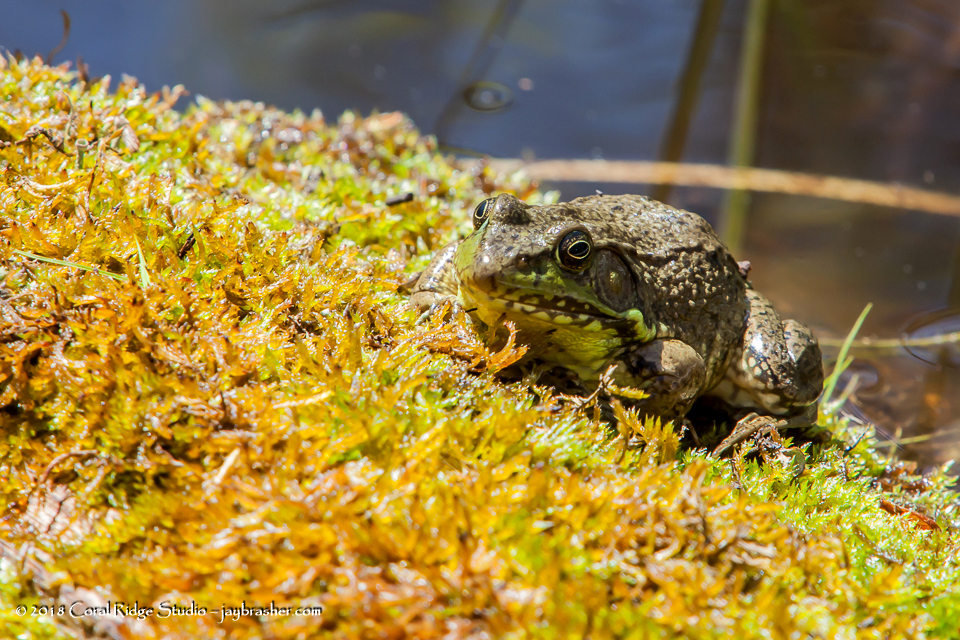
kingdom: Animalia
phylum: Chordata
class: Amphibia
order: Anura
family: Ranidae
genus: Lithobates
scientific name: Lithobates clamitans
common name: Green frog
